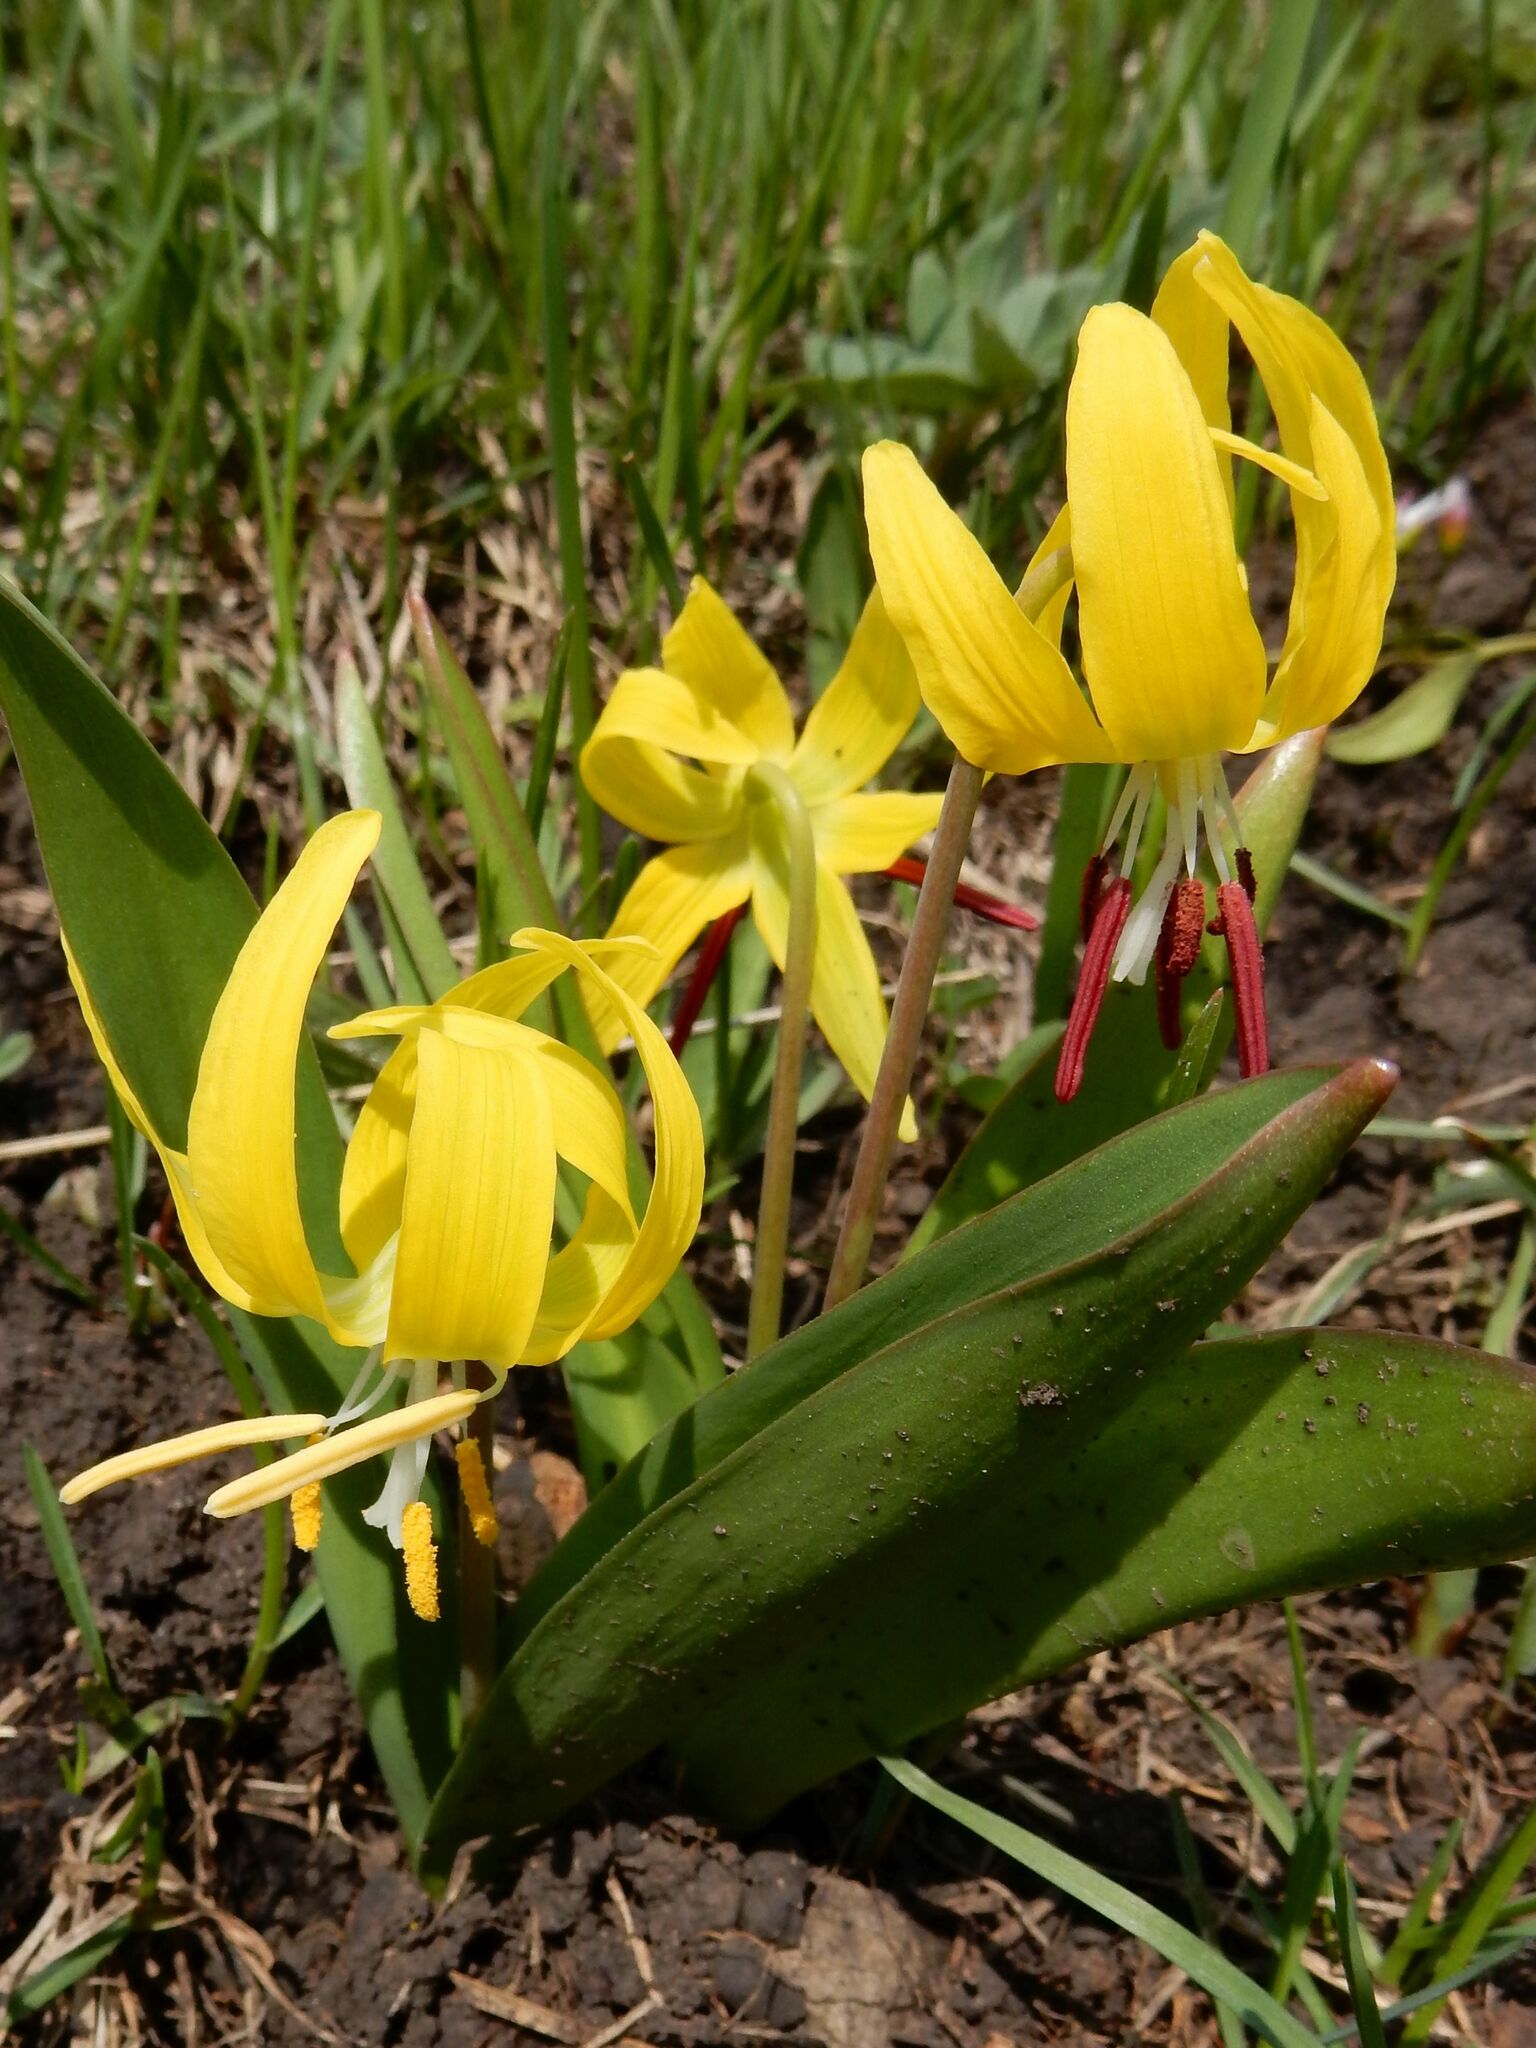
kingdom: Plantae
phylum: Tracheophyta
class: Liliopsida
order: Liliales
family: Liliaceae
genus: Erythronium
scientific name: Erythronium grandiflorum
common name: Avalanche-lily
